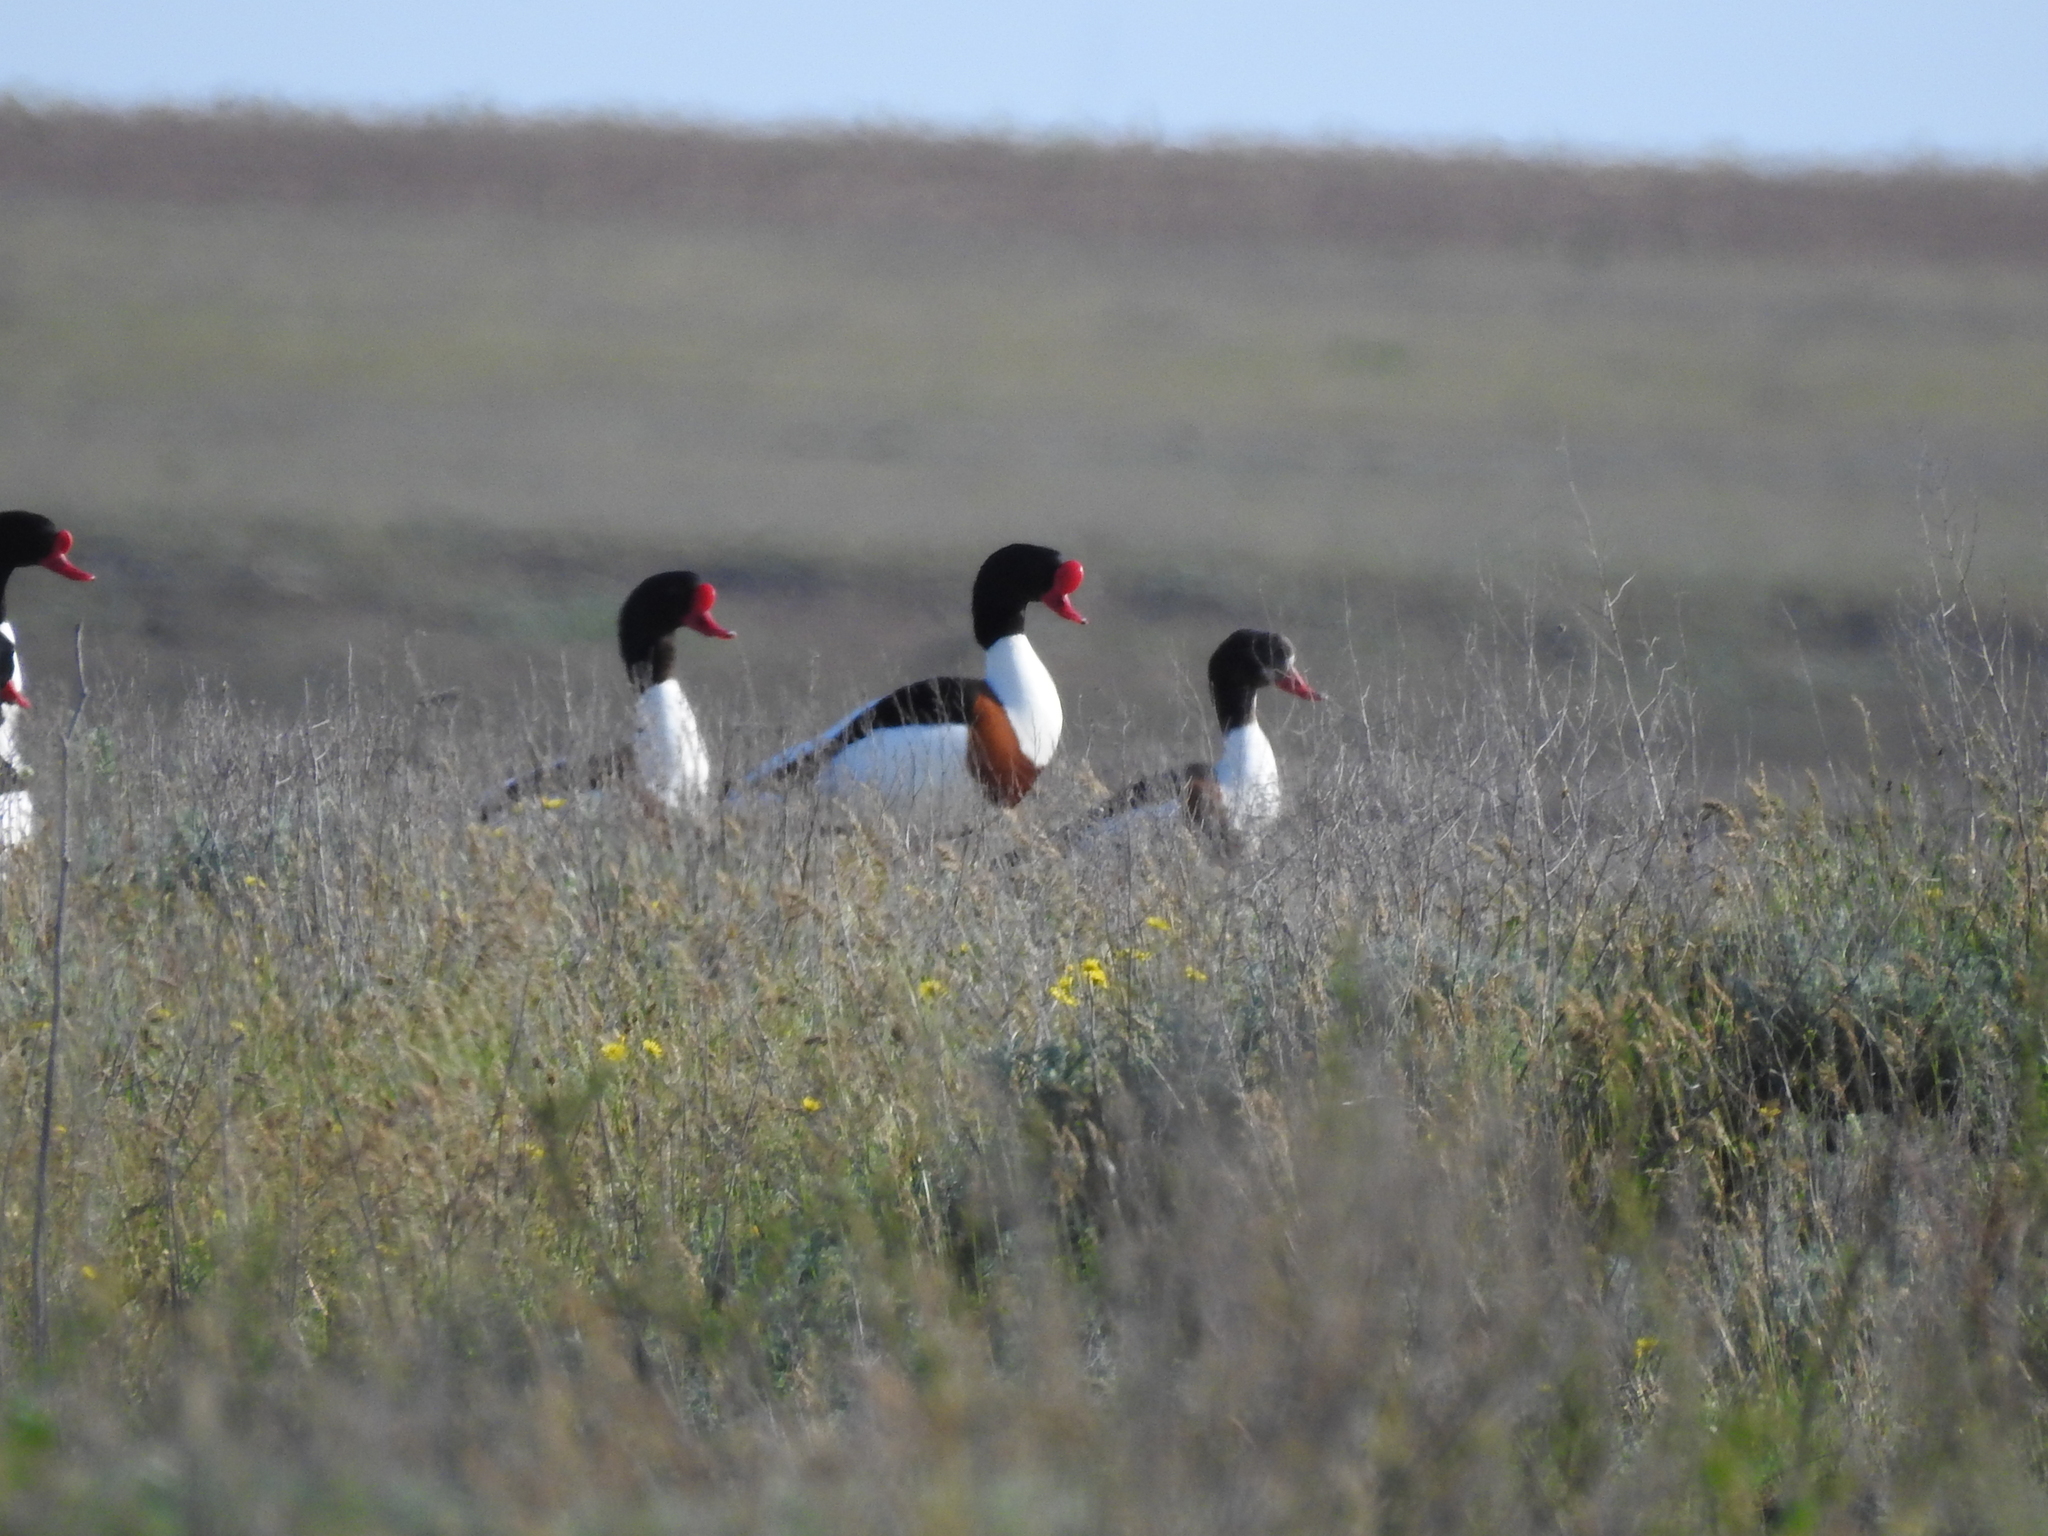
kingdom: Animalia
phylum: Chordata
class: Aves
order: Anseriformes
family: Anatidae
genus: Tadorna
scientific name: Tadorna tadorna
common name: Common shelduck
